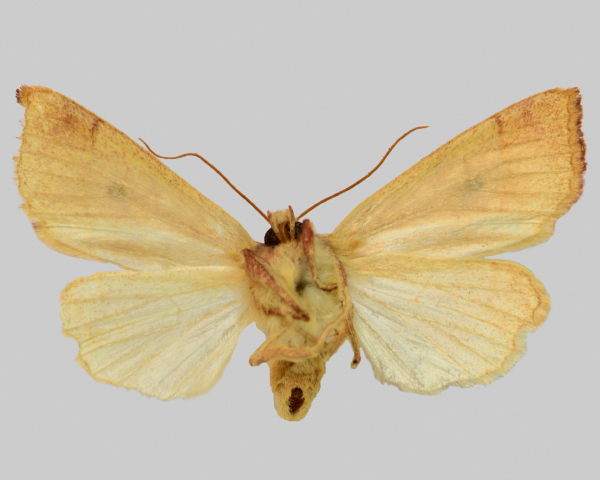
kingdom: Animalia
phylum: Arthropoda
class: Insecta
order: Lepidoptera
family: Noctuidae
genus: Xanthia
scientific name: Xanthia icteritia
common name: The sallow
